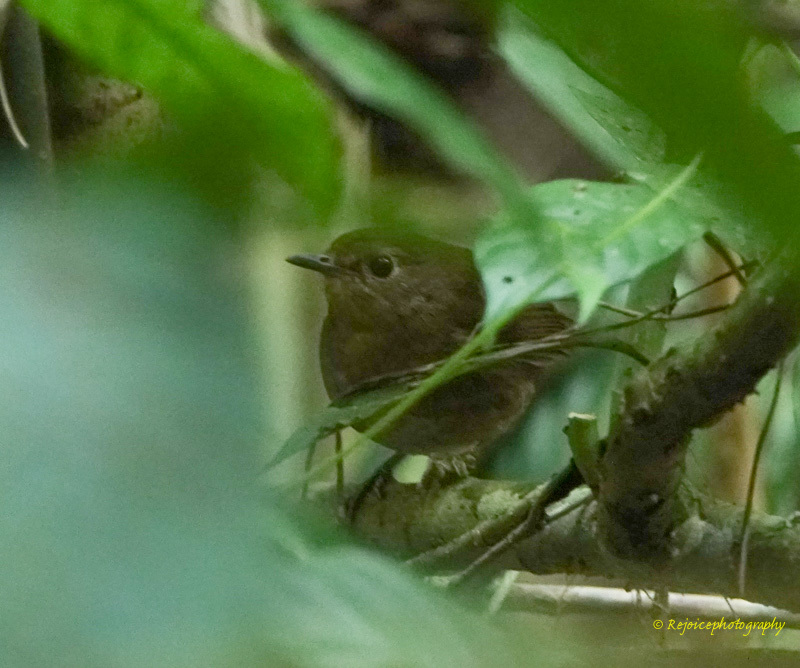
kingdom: Animalia
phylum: Chordata
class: Aves
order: Passeriformes
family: Muscicapidae
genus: Brachypteryx
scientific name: Brachypteryx leucophris
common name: Lesser shortwing
